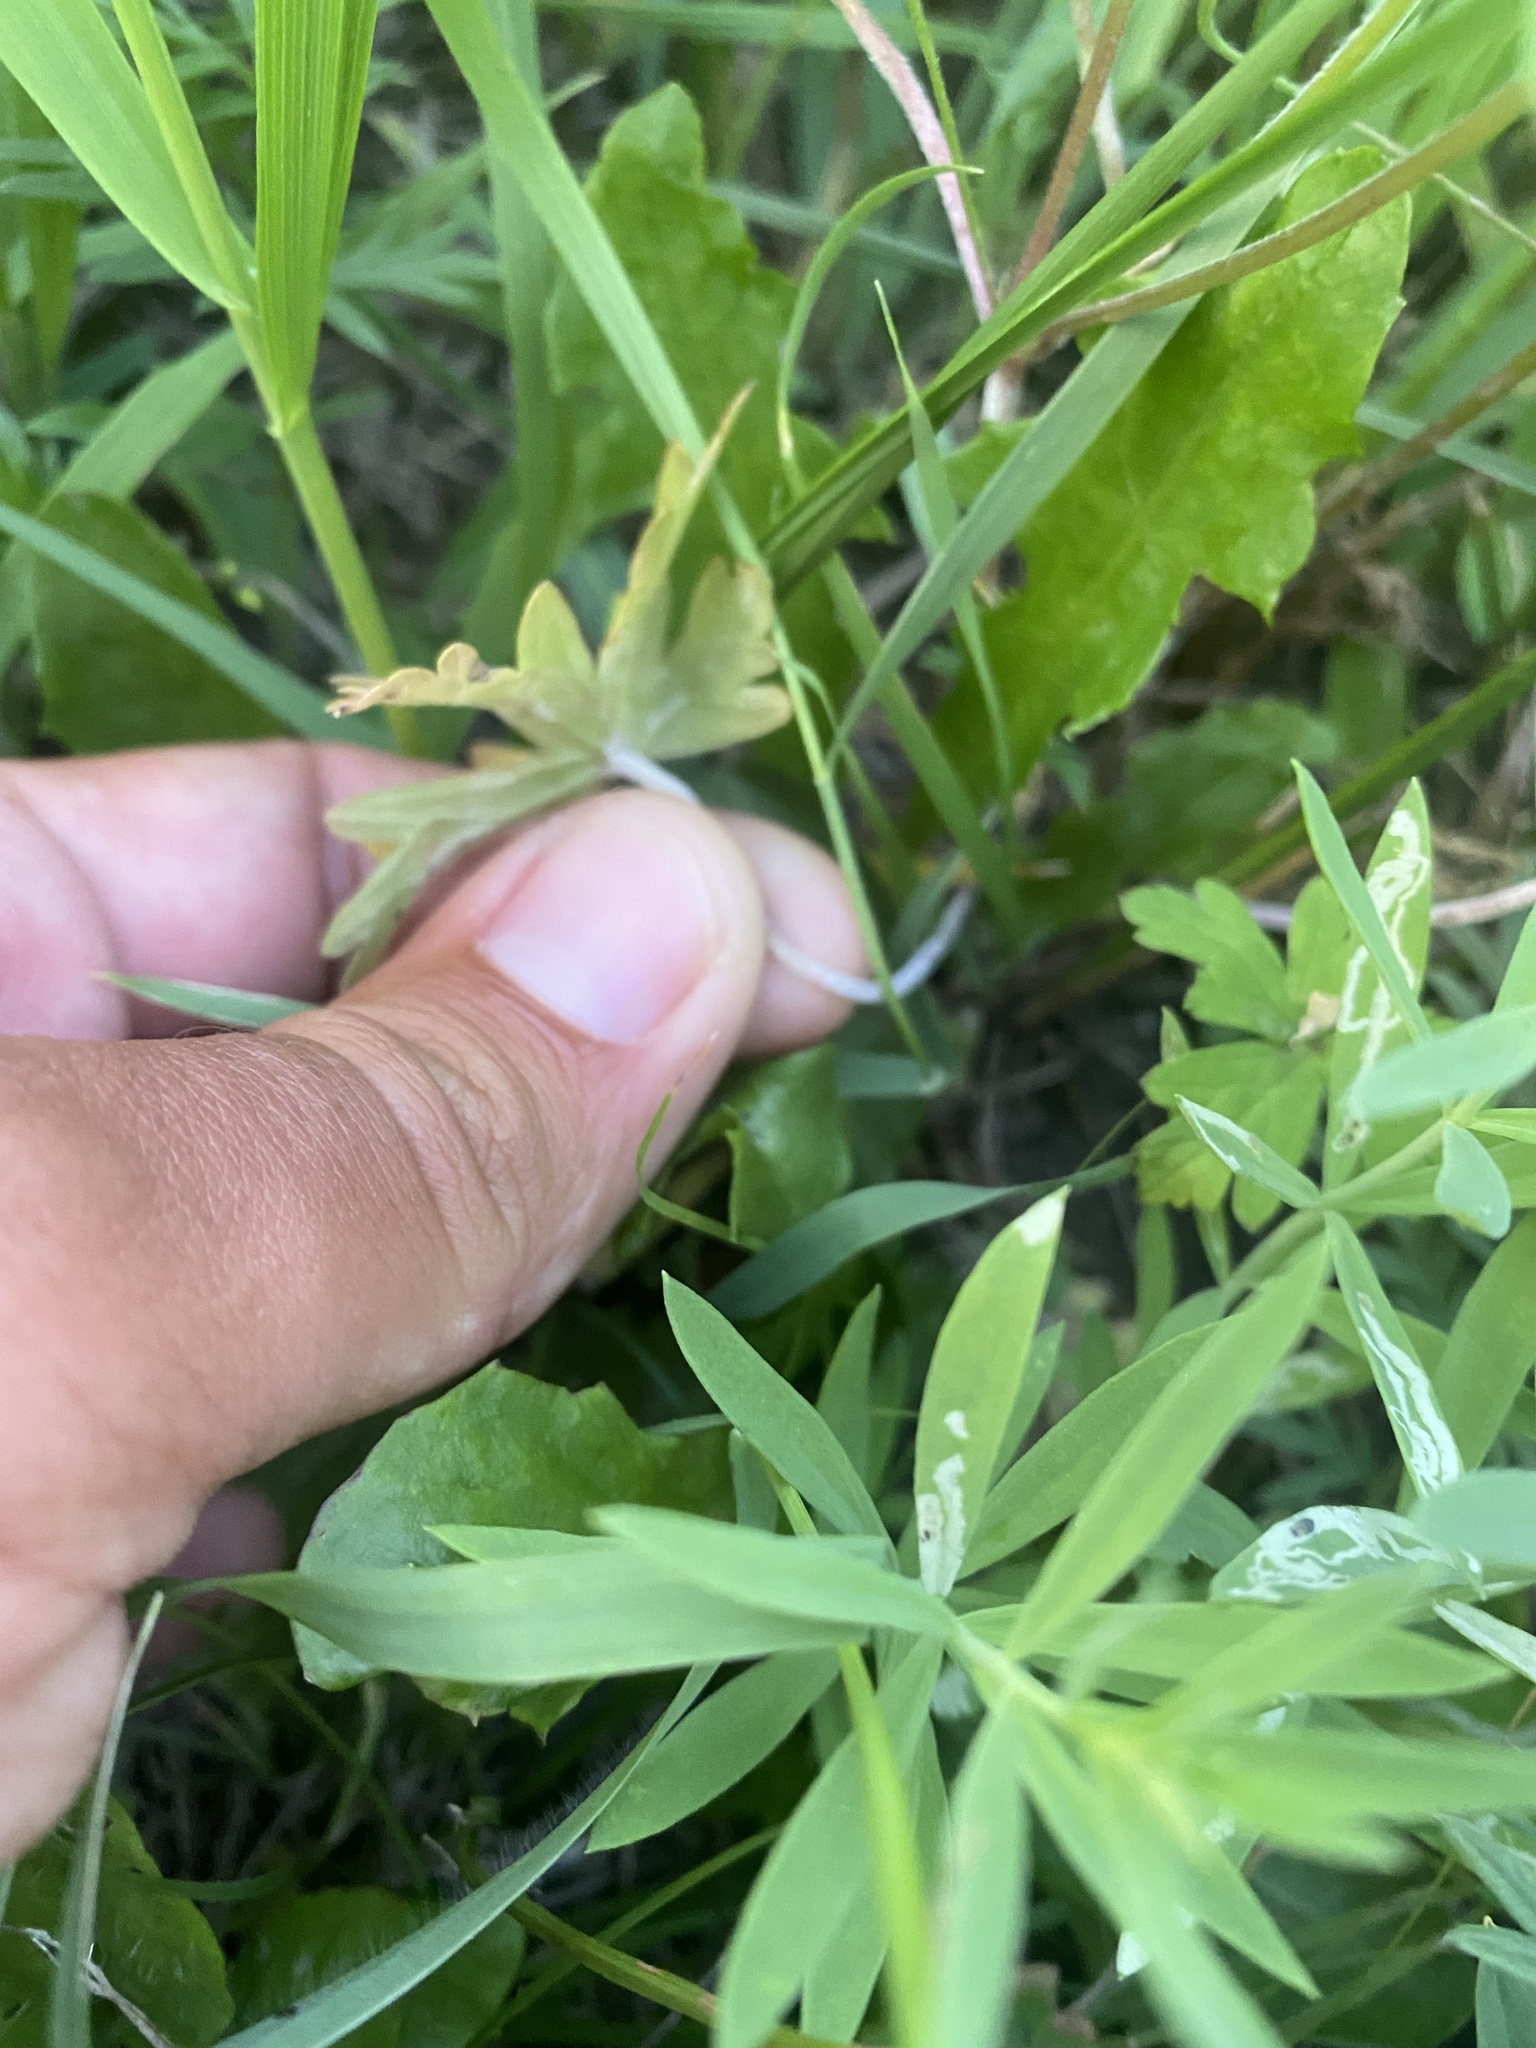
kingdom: Plantae
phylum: Tracheophyta
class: Magnoliopsida
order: Geraniales
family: Geraniaceae
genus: Geranium
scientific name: Geranium sibiricum
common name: Siberian crane's-bill
